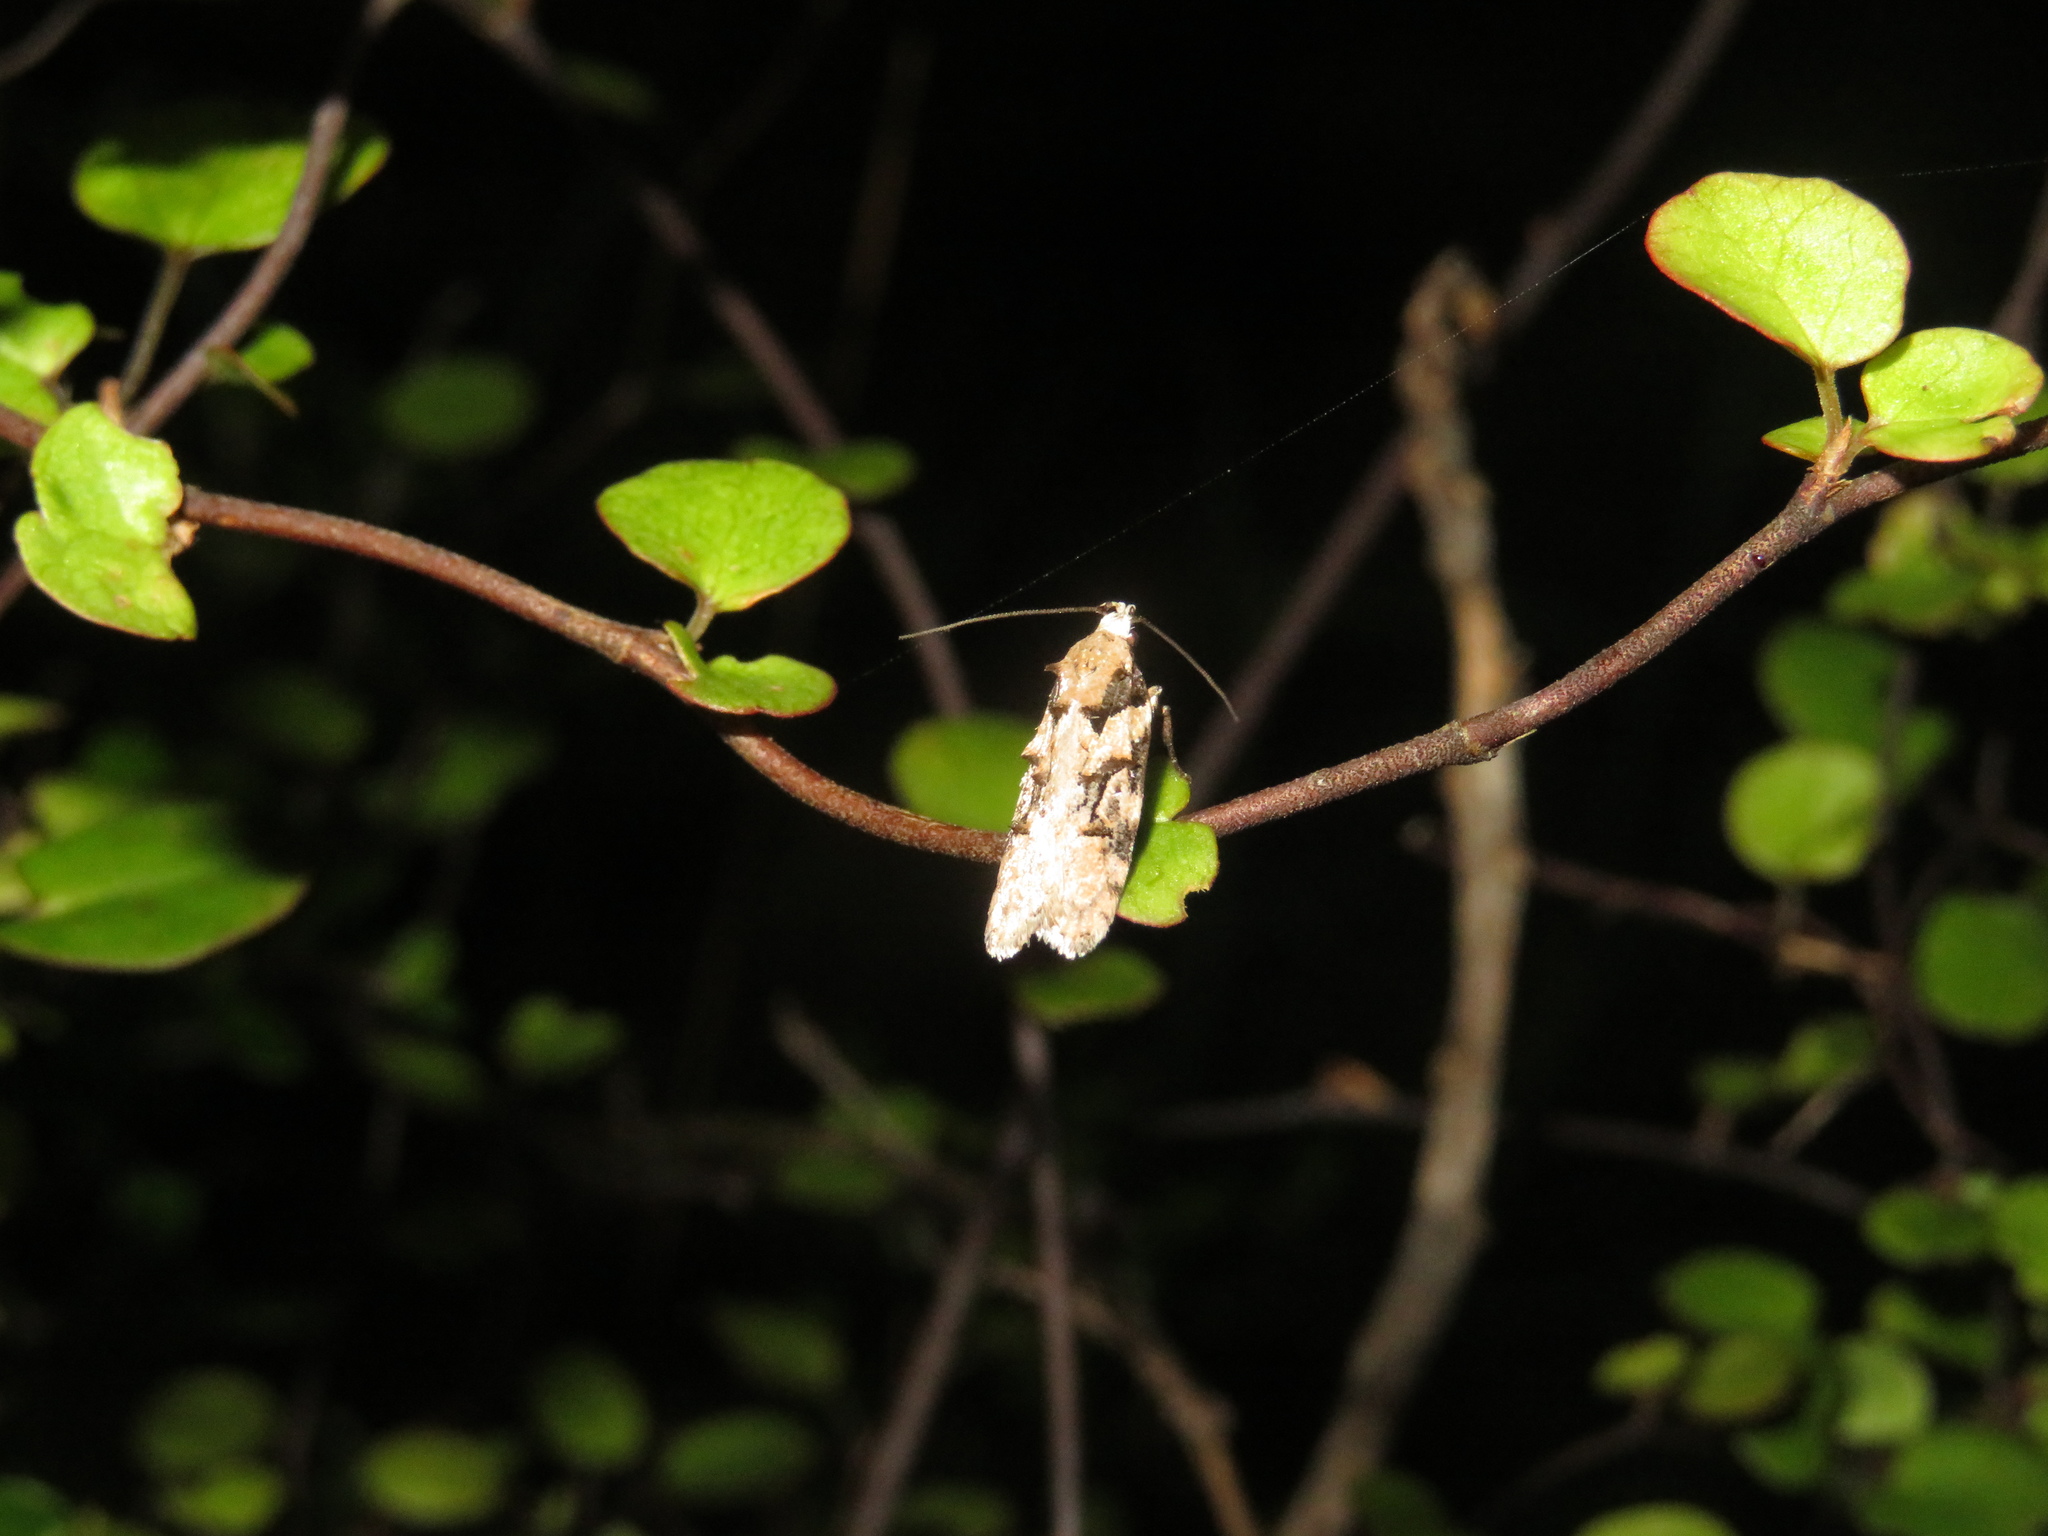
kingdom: Animalia
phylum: Arthropoda
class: Insecta
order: Lepidoptera
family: Oecophoridae
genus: Izatha
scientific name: Izatha epiphanes
